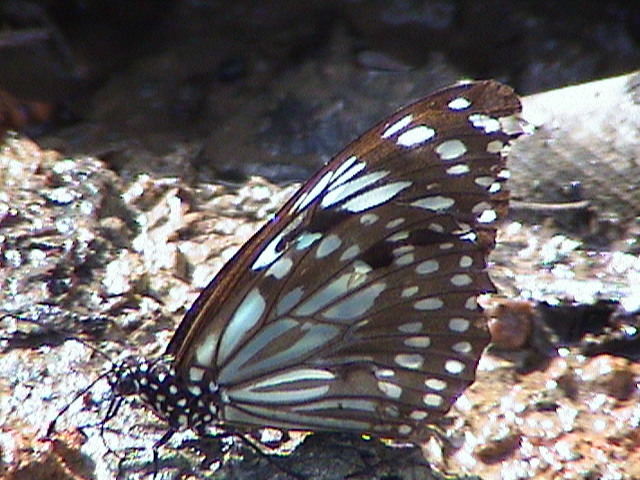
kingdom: Animalia
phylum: Arthropoda
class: Insecta
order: Lepidoptera
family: Nymphalidae
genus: Tirumala
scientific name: Tirumala septentrionis
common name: Dark blue tiger butterfly
